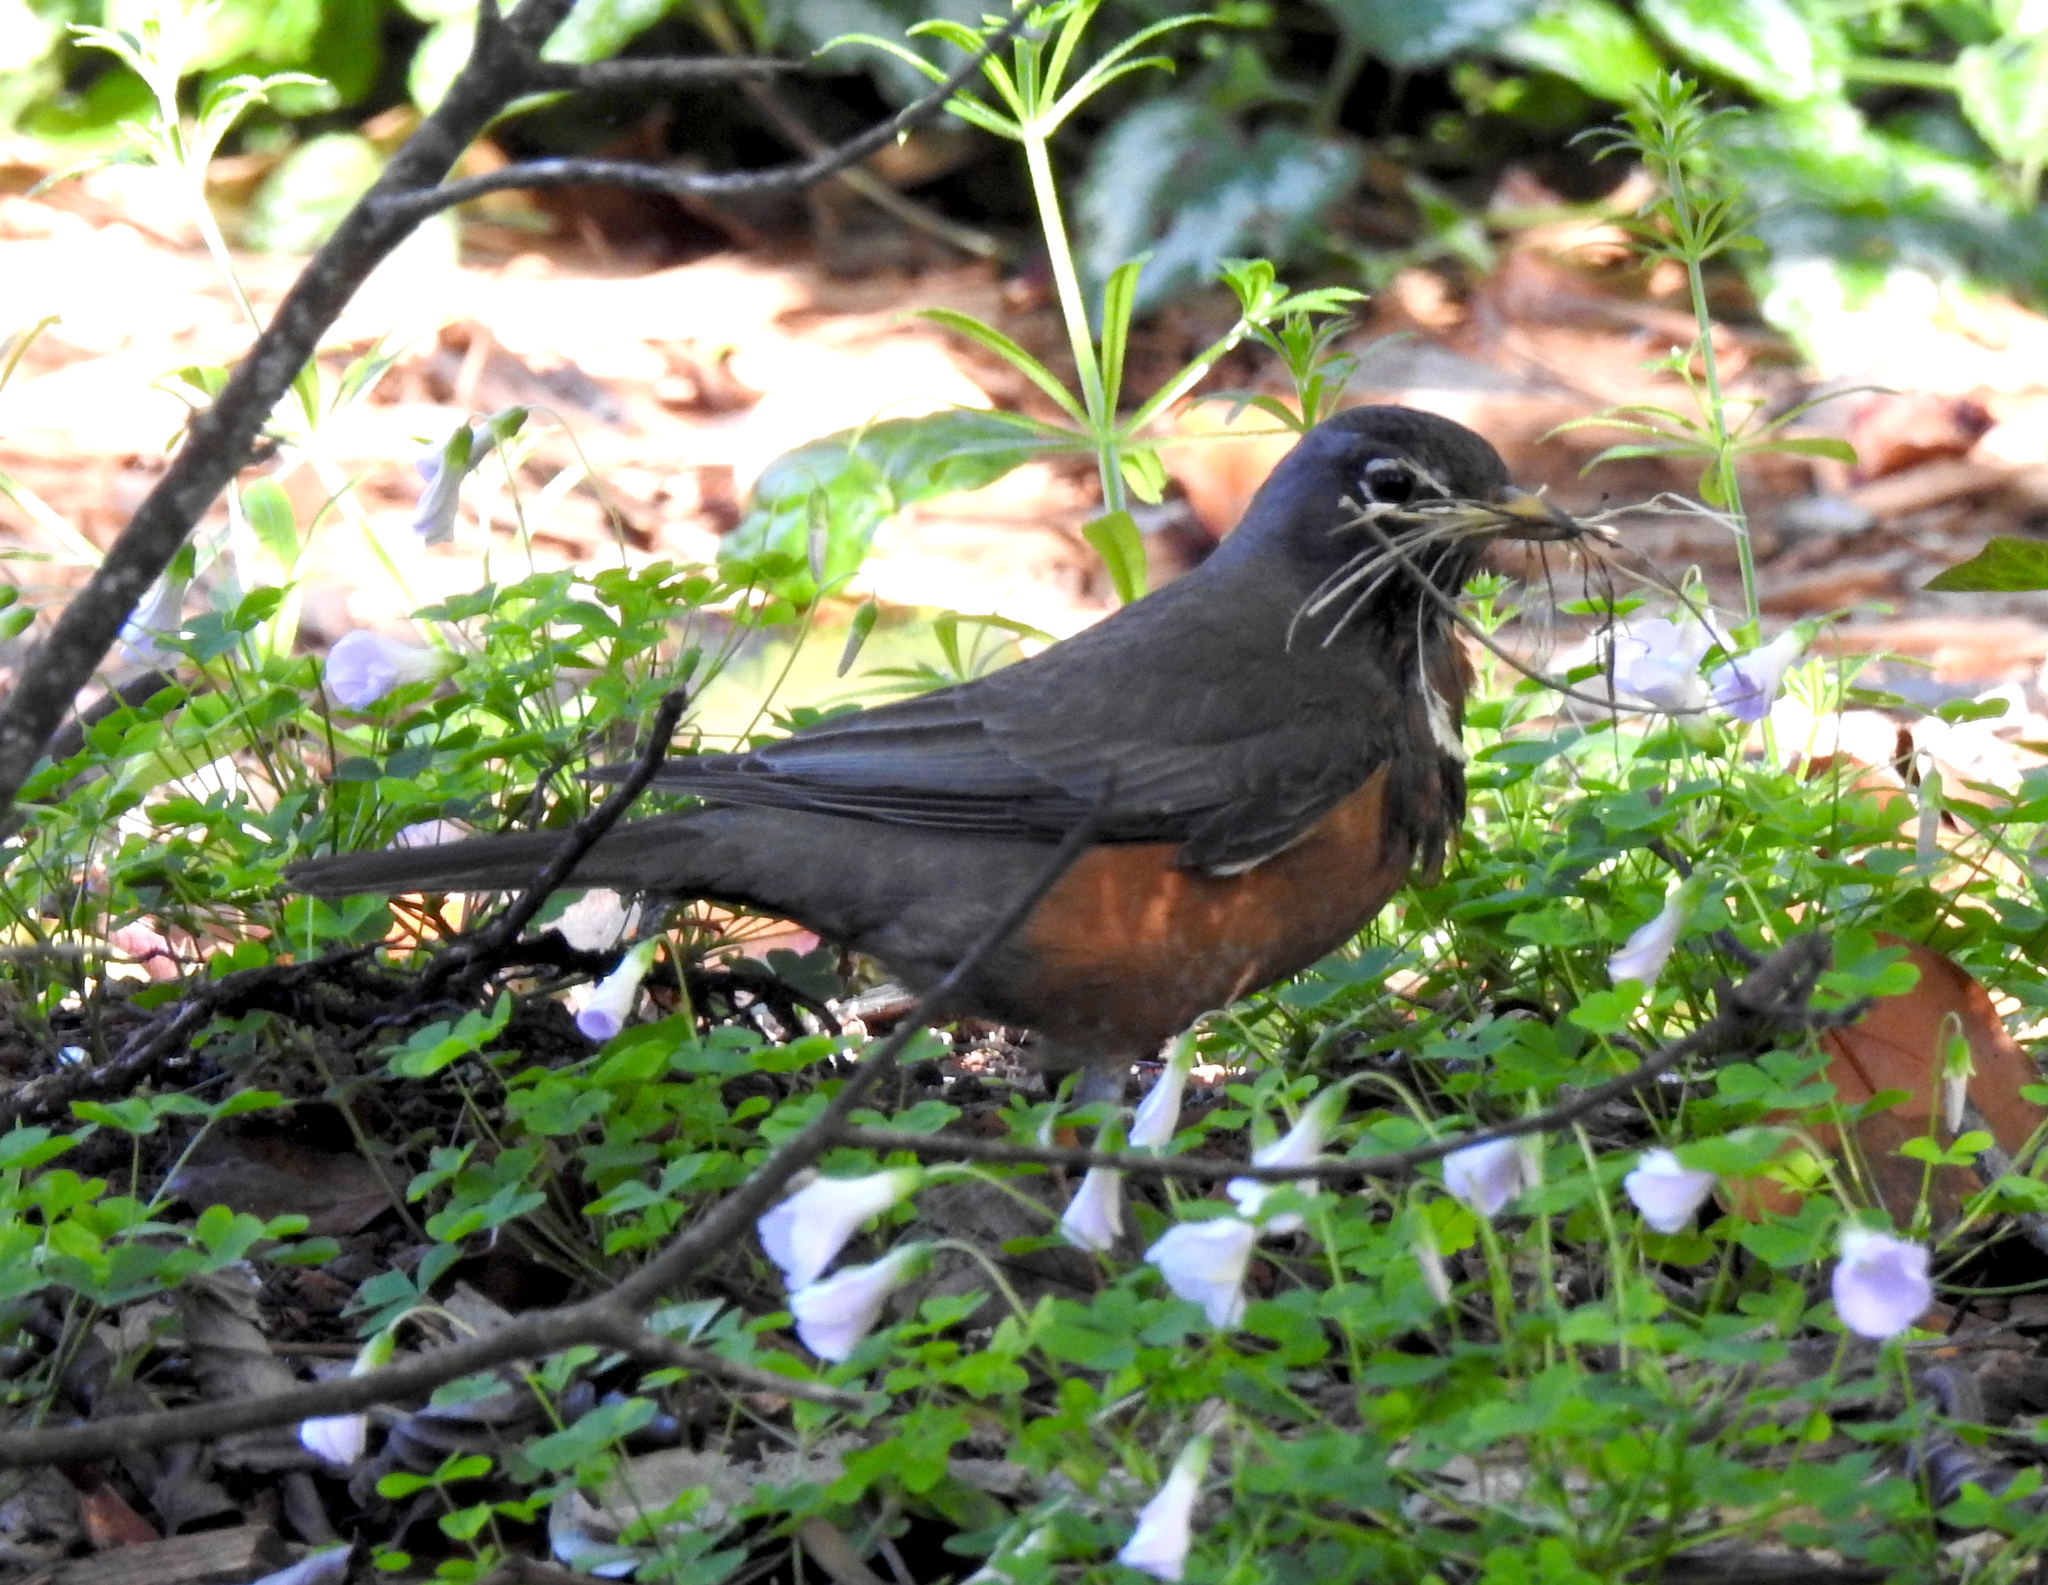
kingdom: Animalia
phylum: Chordata
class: Aves
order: Passeriformes
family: Turdidae
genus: Turdus
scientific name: Turdus migratorius
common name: American robin
